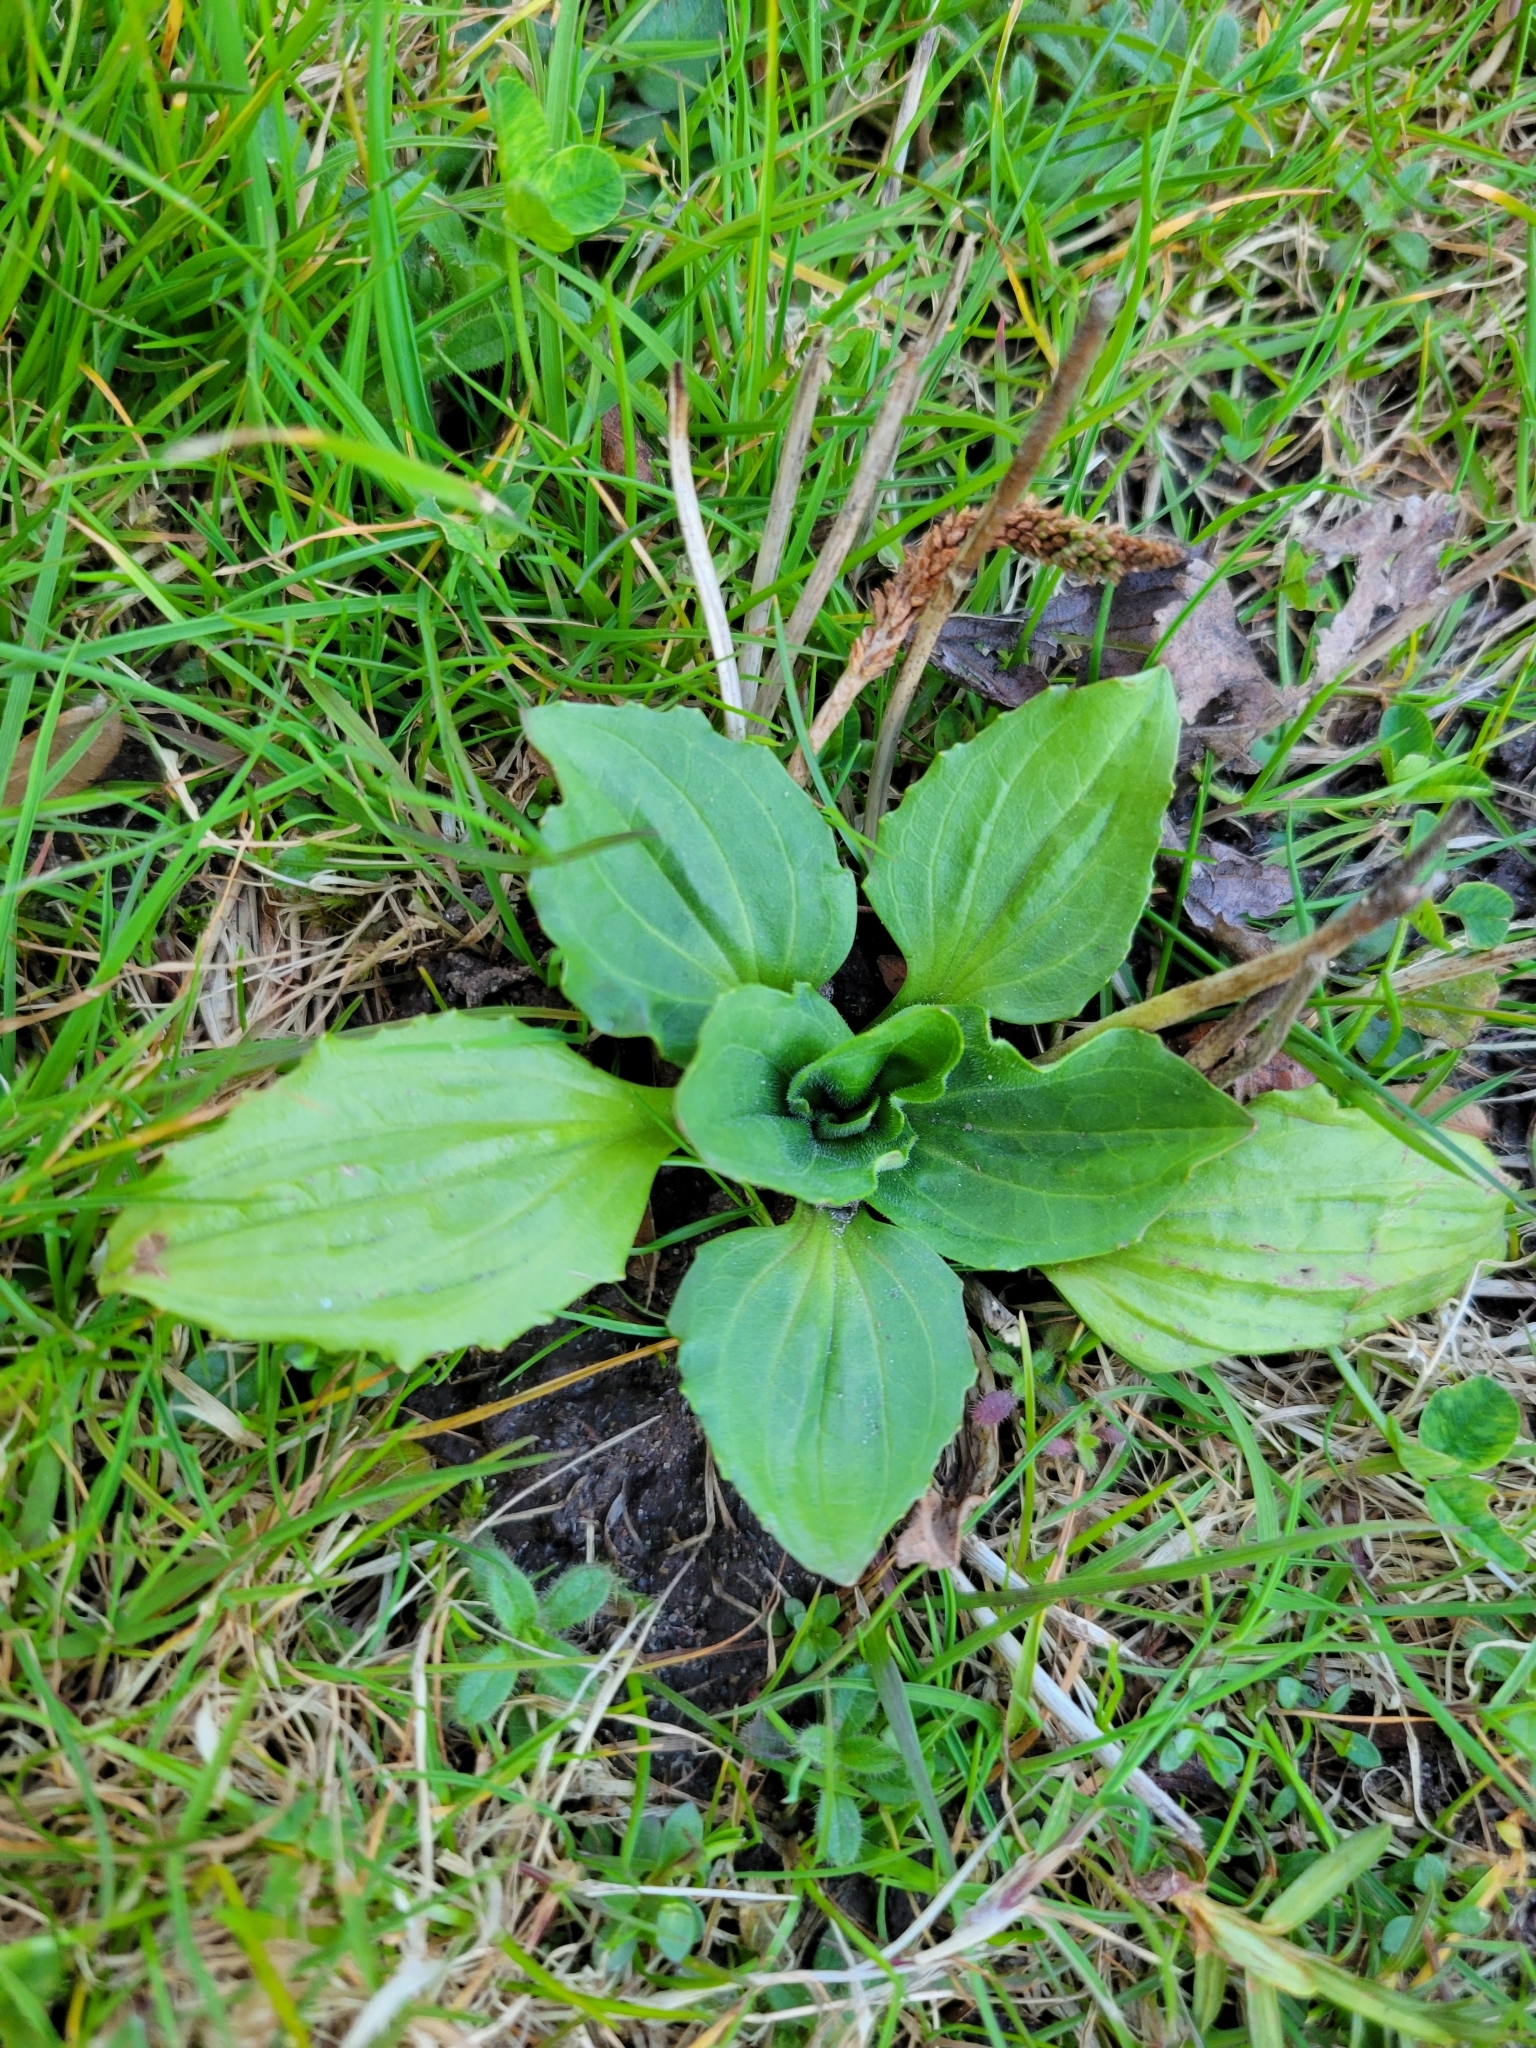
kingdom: Plantae
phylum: Tracheophyta
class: Magnoliopsida
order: Lamiales
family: Plantaginaceae
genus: Plantago
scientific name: Plantago major
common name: Common plantain
